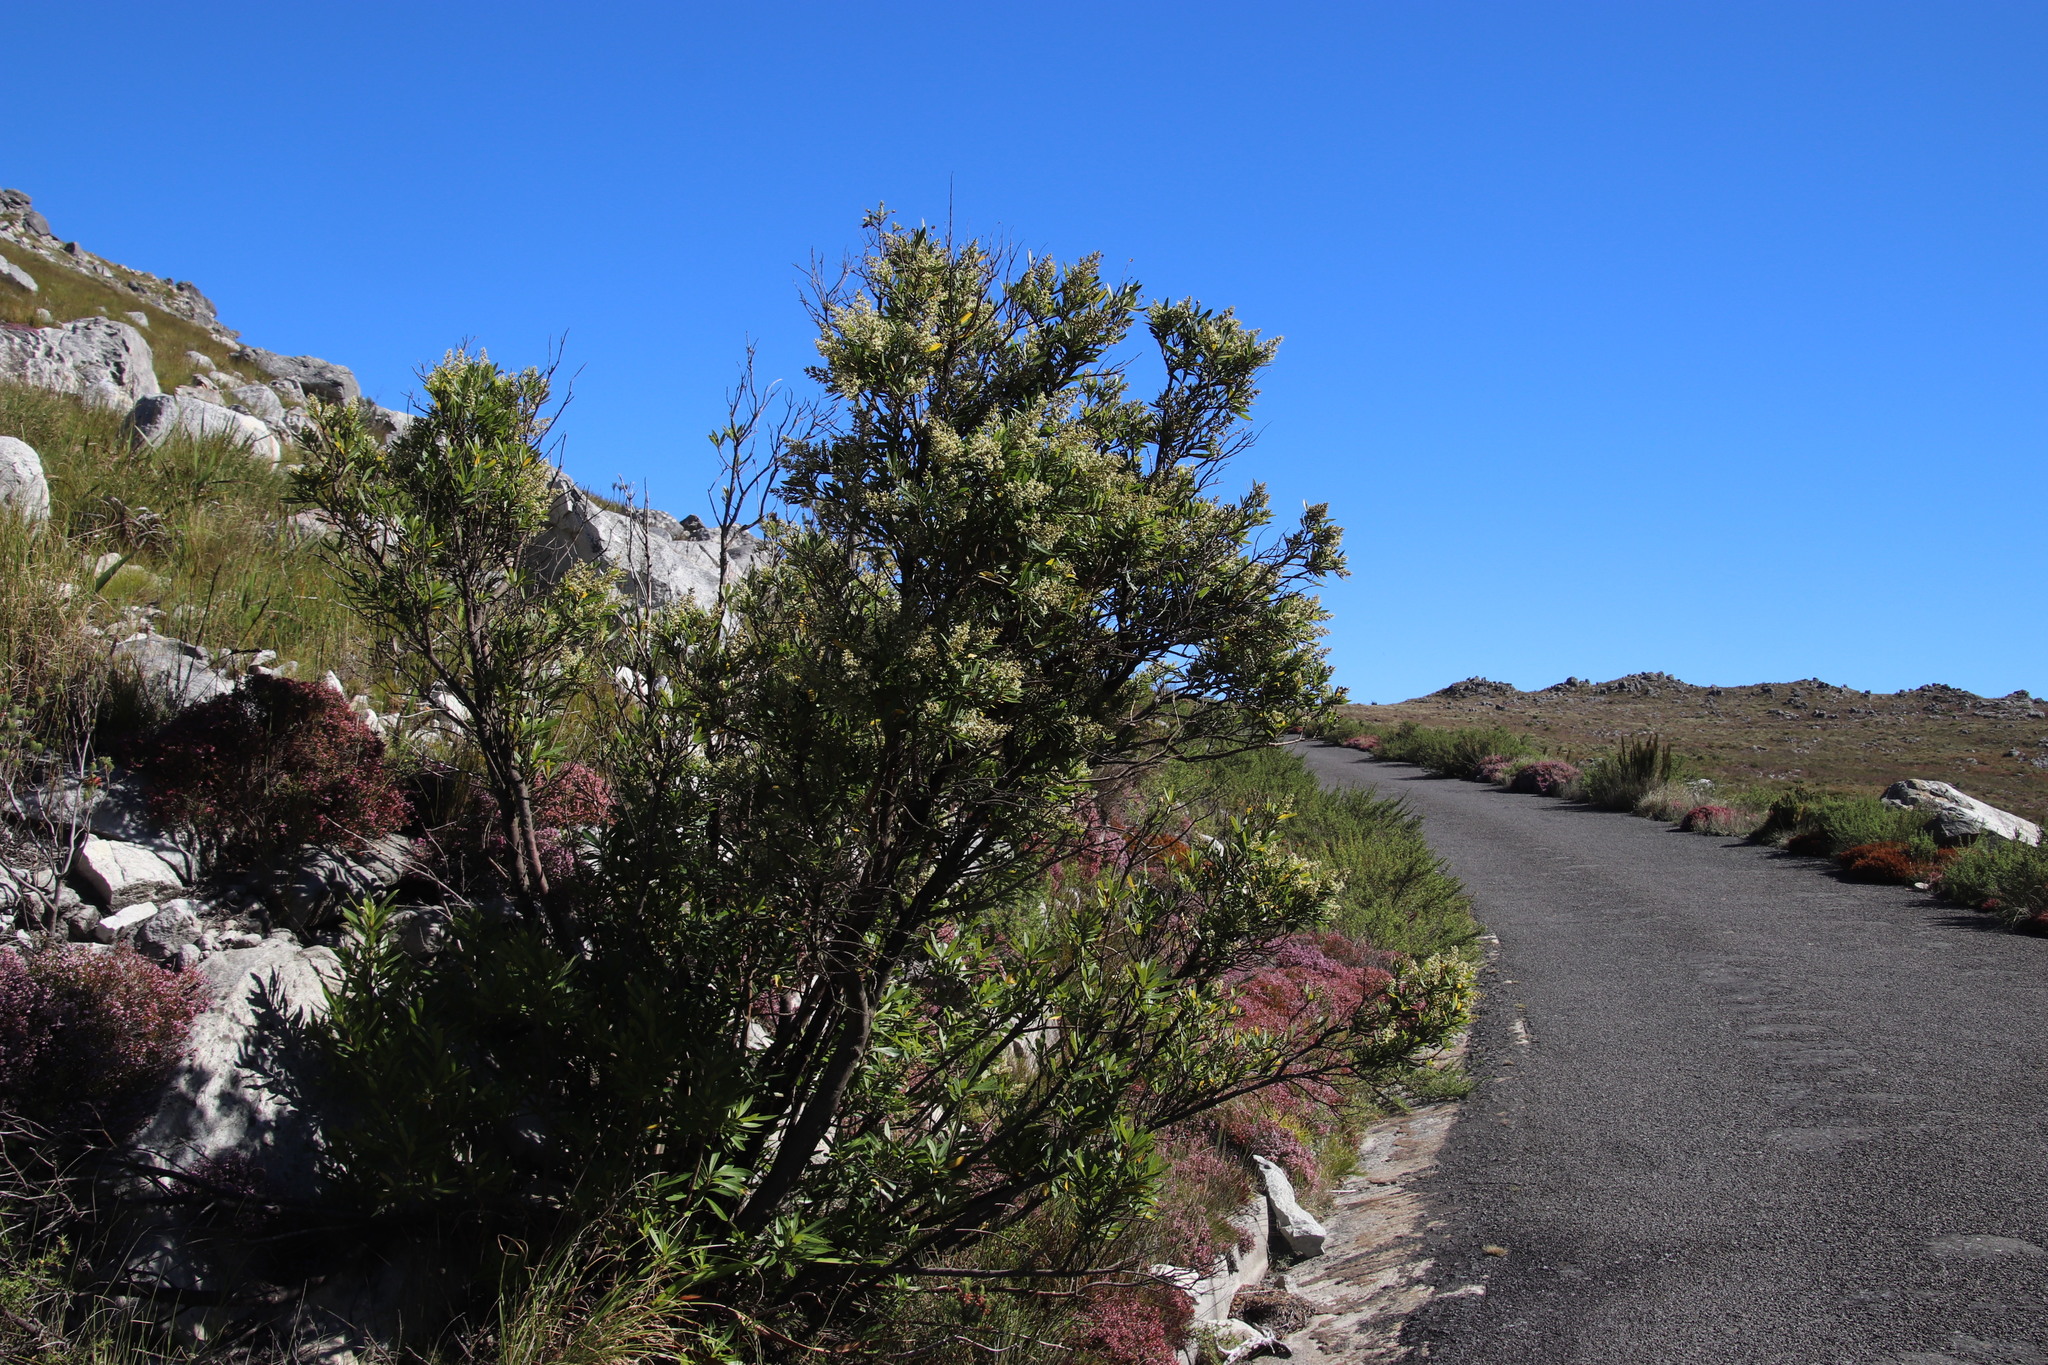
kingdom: Plantae
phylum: Tracheophyta
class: Magnoliopsida
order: Asterales
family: Asteraceae
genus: Brachylaena
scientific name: Brachylaena neriifolia
